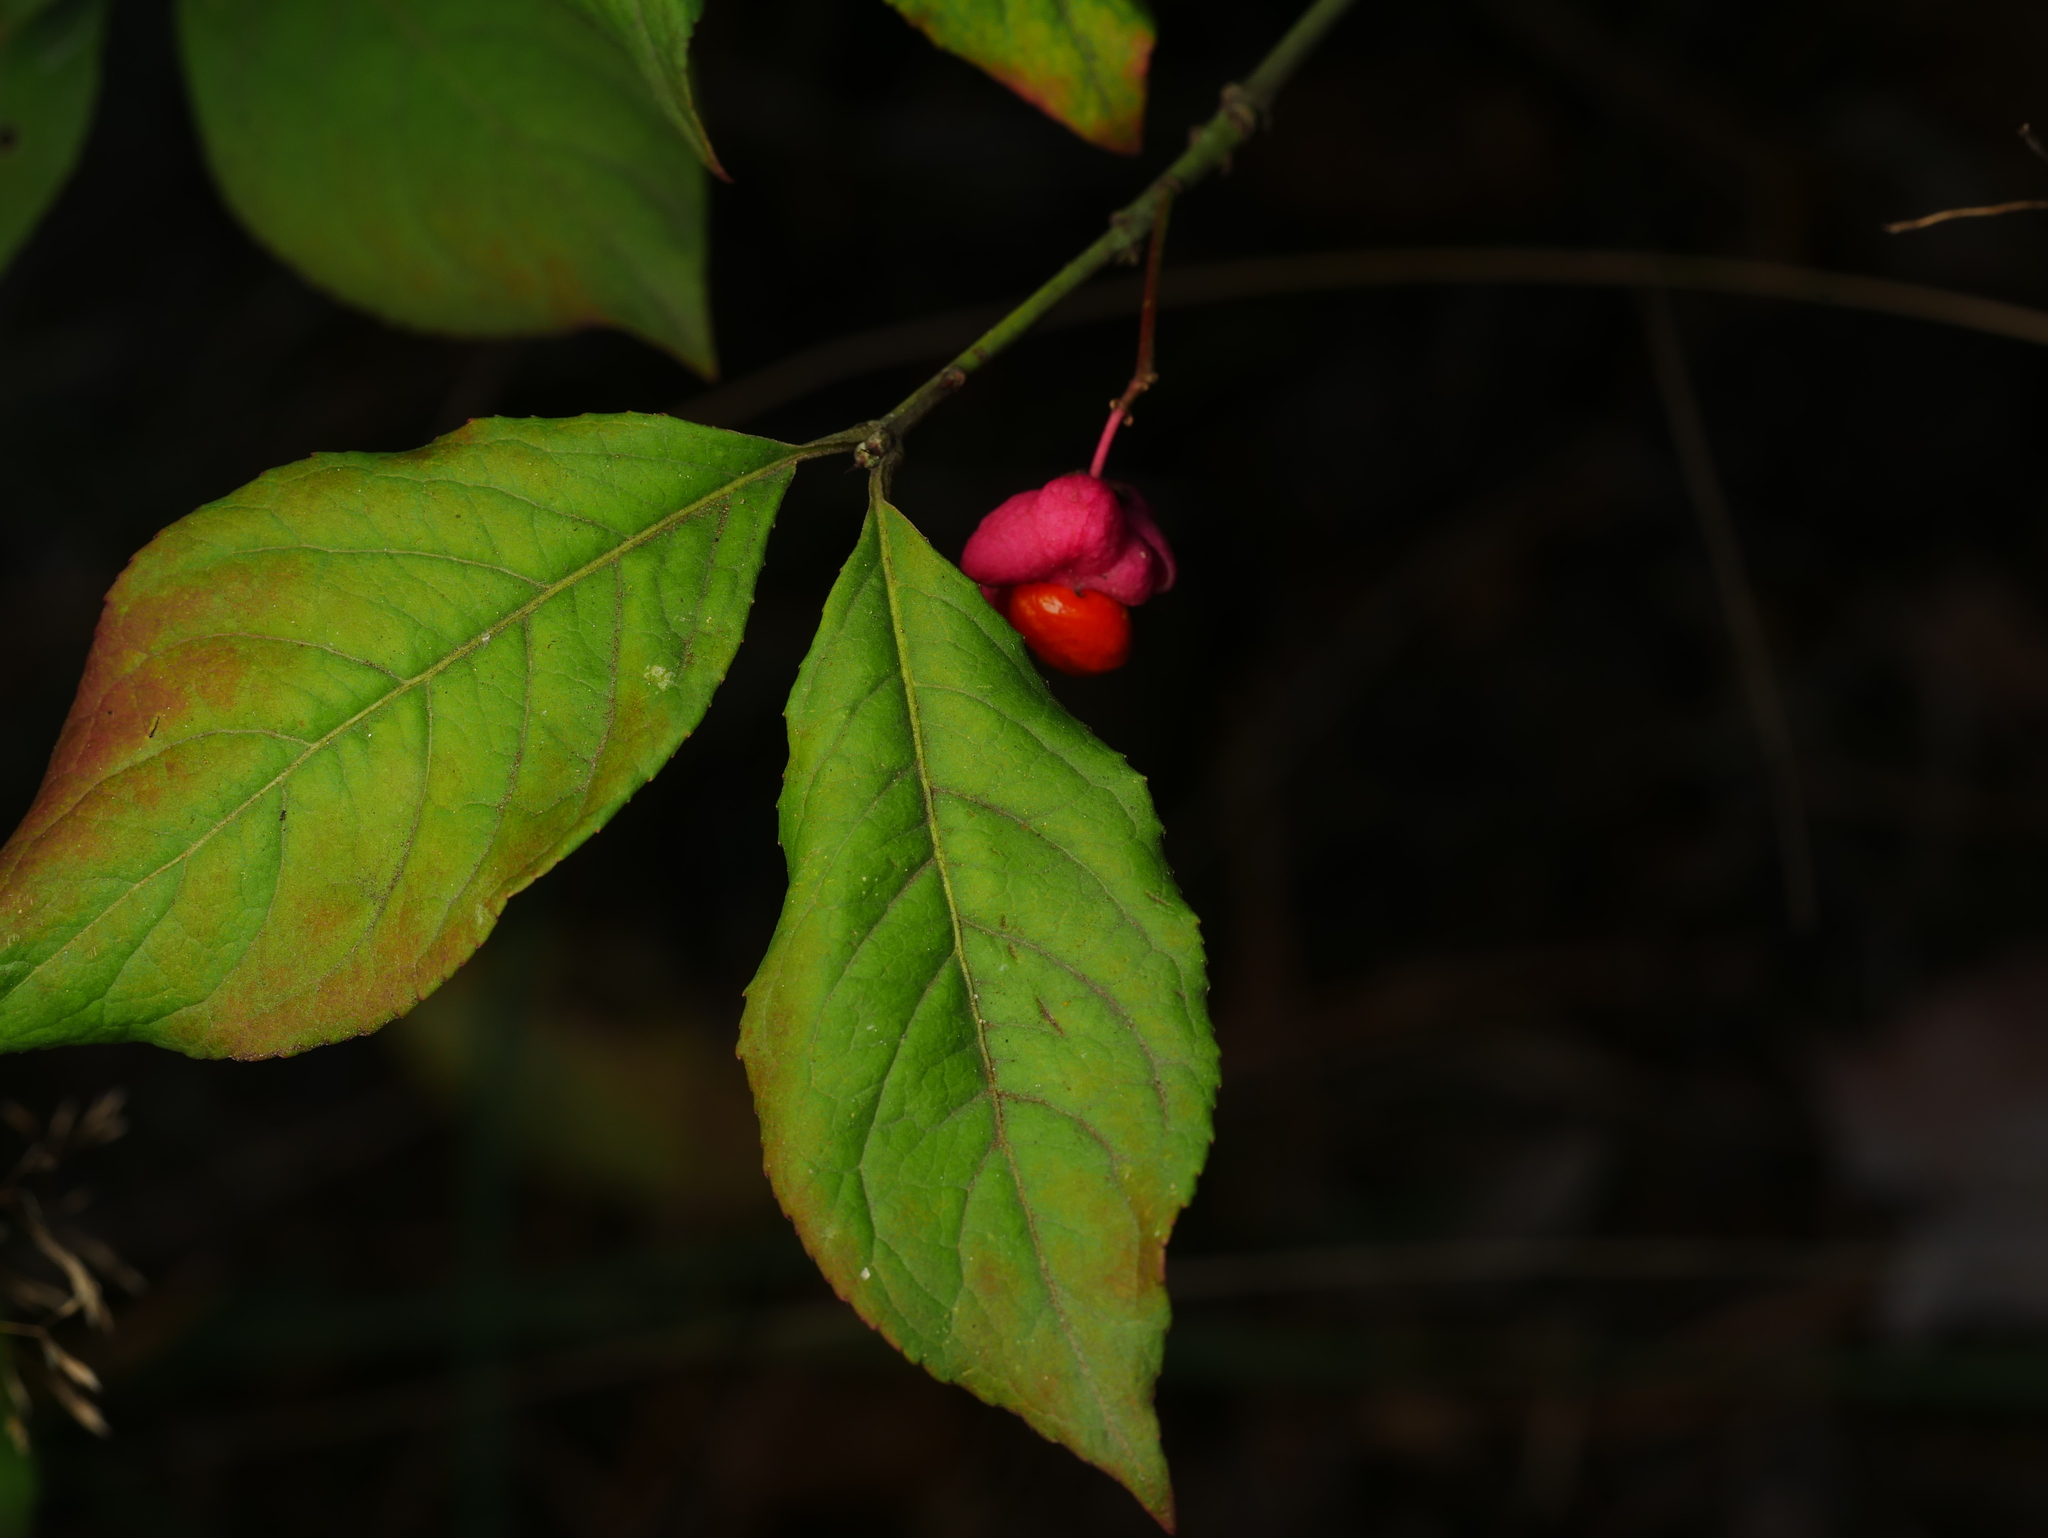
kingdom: Plantae
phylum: Tracheophyta
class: Magnoliopsida
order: Celastrales
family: Celastraceae
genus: Euonymus
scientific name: Euonymus europaeus
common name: Spindle
